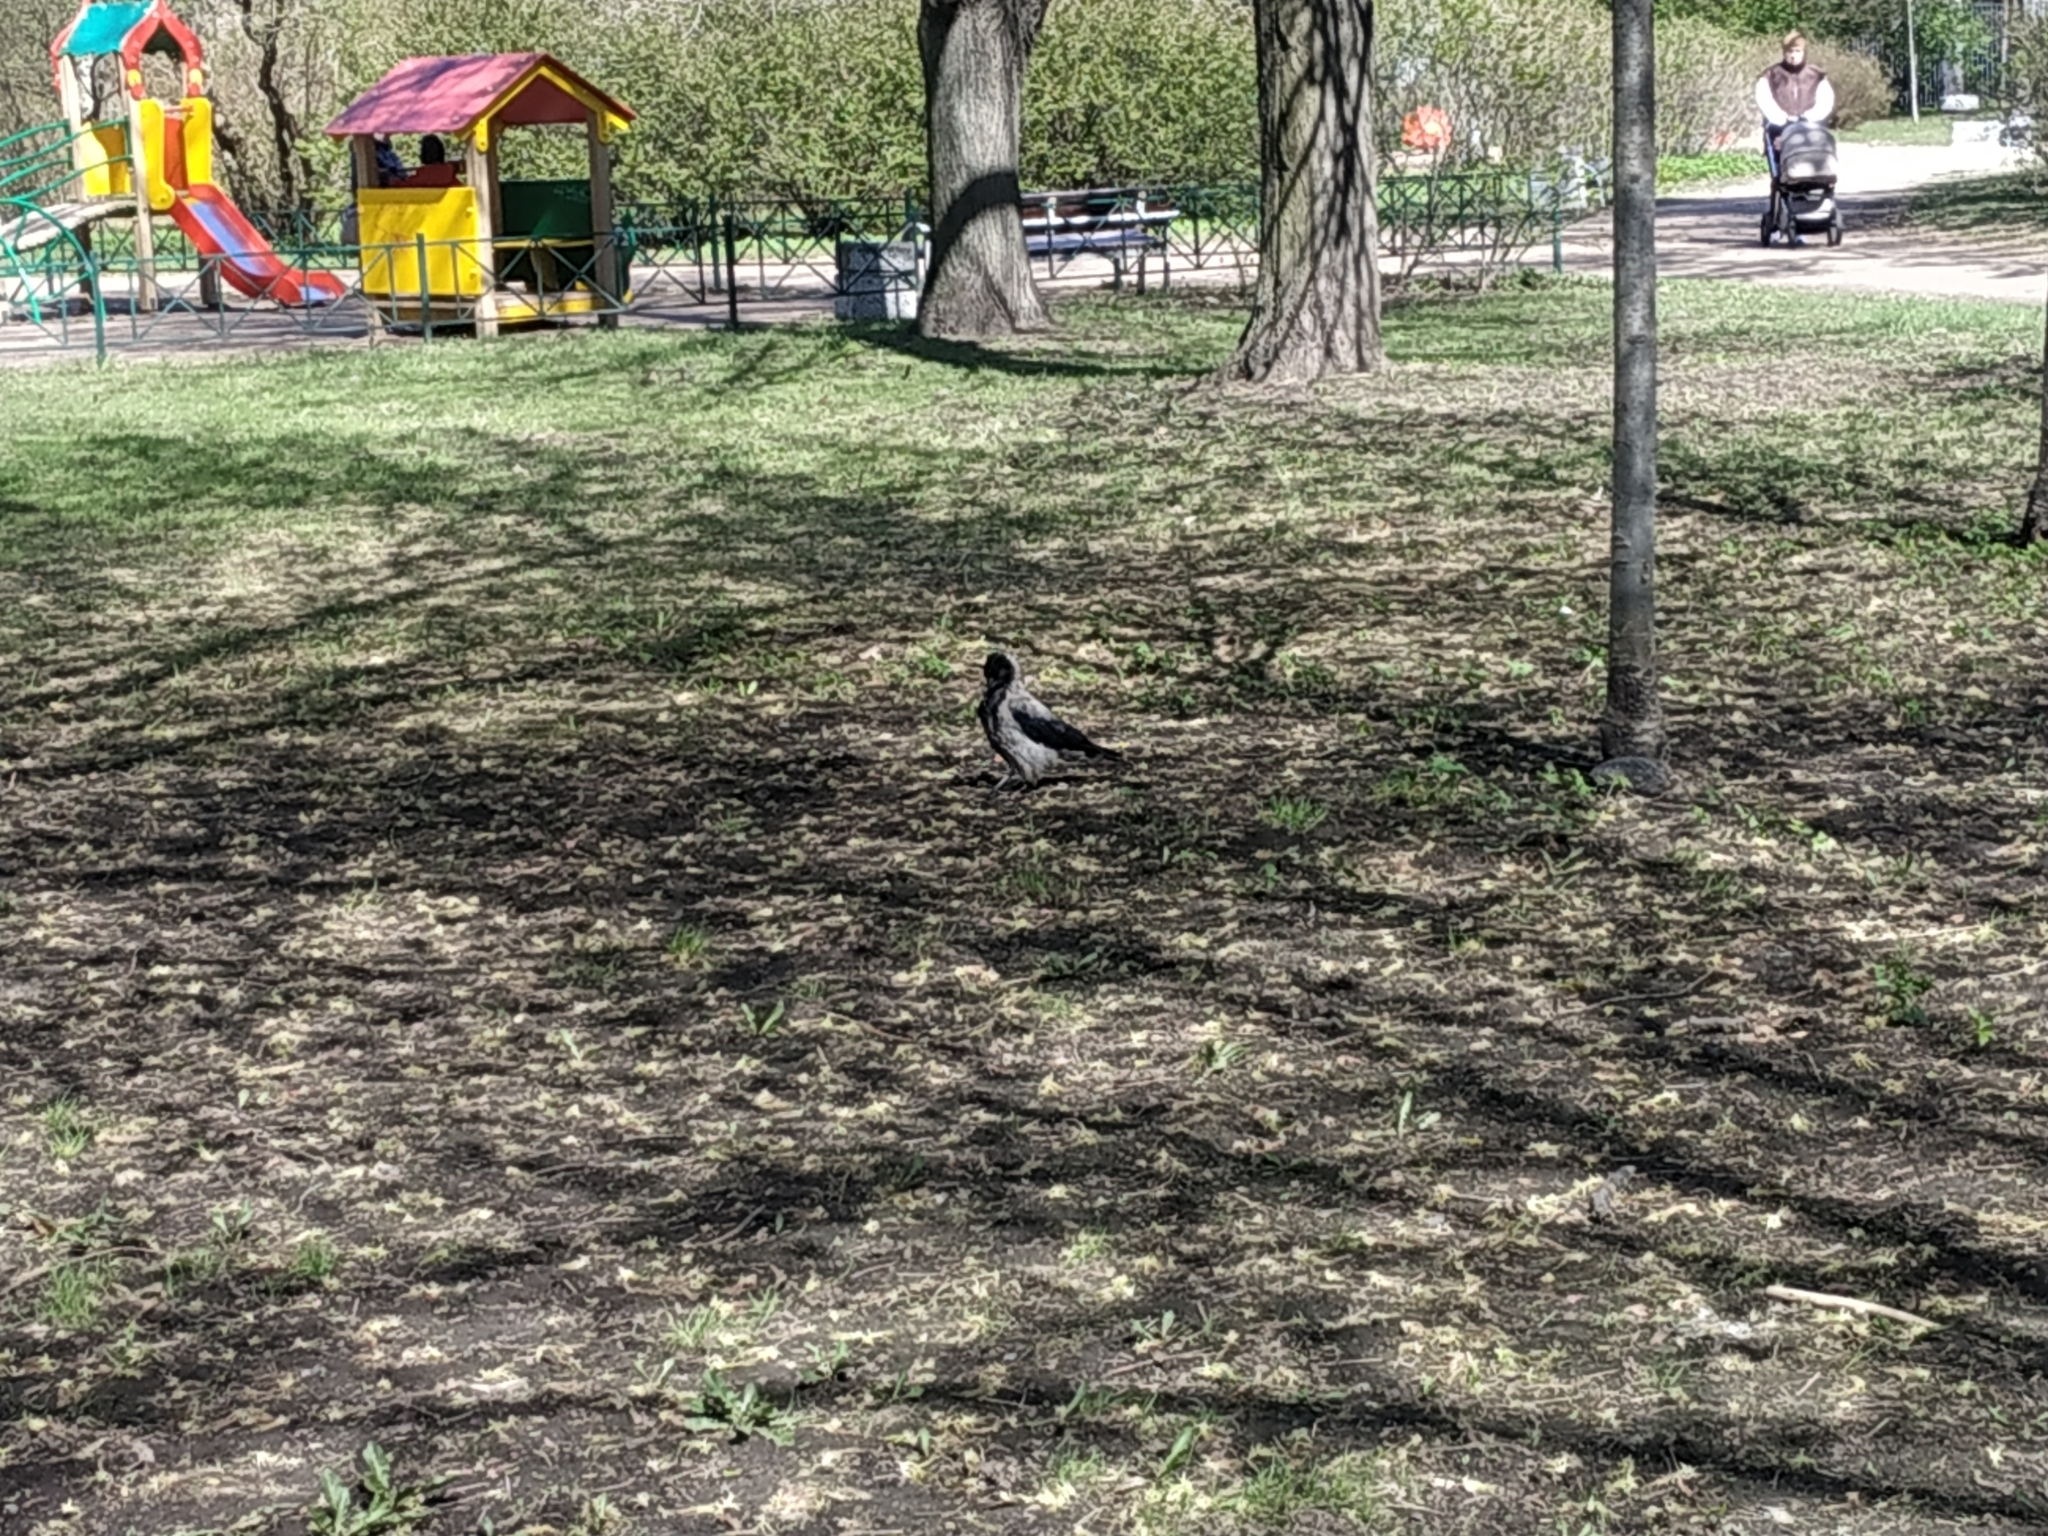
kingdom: Animalia
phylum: Chordata
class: Aves
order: Passeriformes
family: Corvidae
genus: Corvus
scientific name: Corvus cornix
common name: Hooded crow
